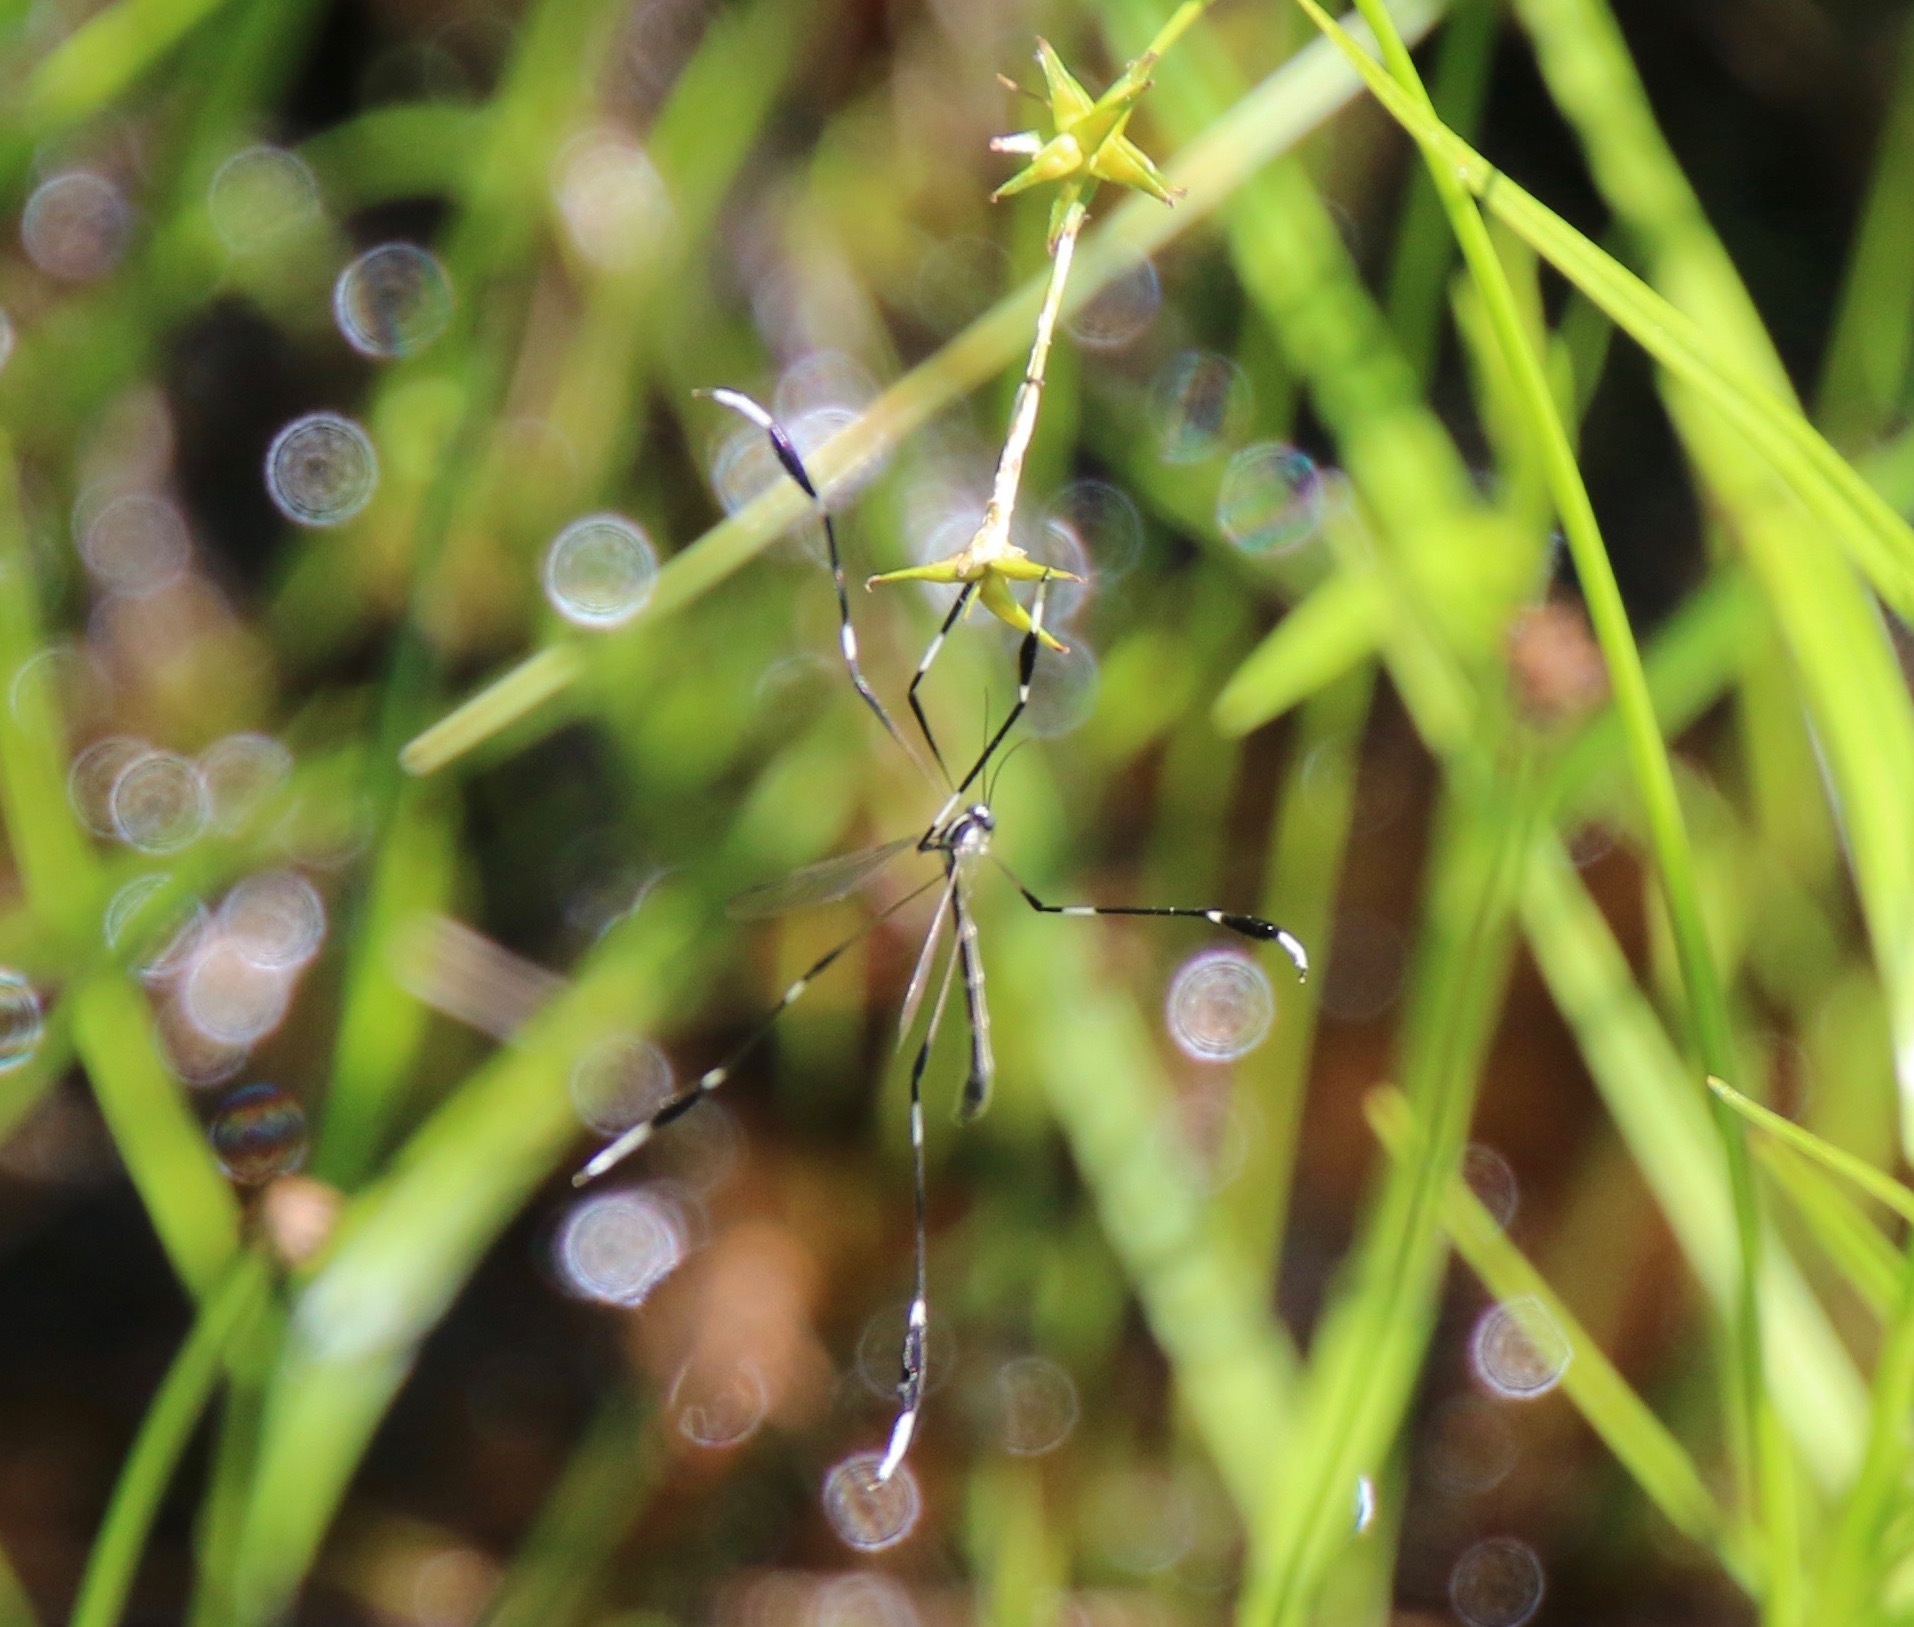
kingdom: Animalia
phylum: Arthropoda
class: Insecta
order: Diptera
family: Ptychopteridae
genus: Bittacomorpha
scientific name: Bittacomorpha clavipes
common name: Eastern phantom crane fly
